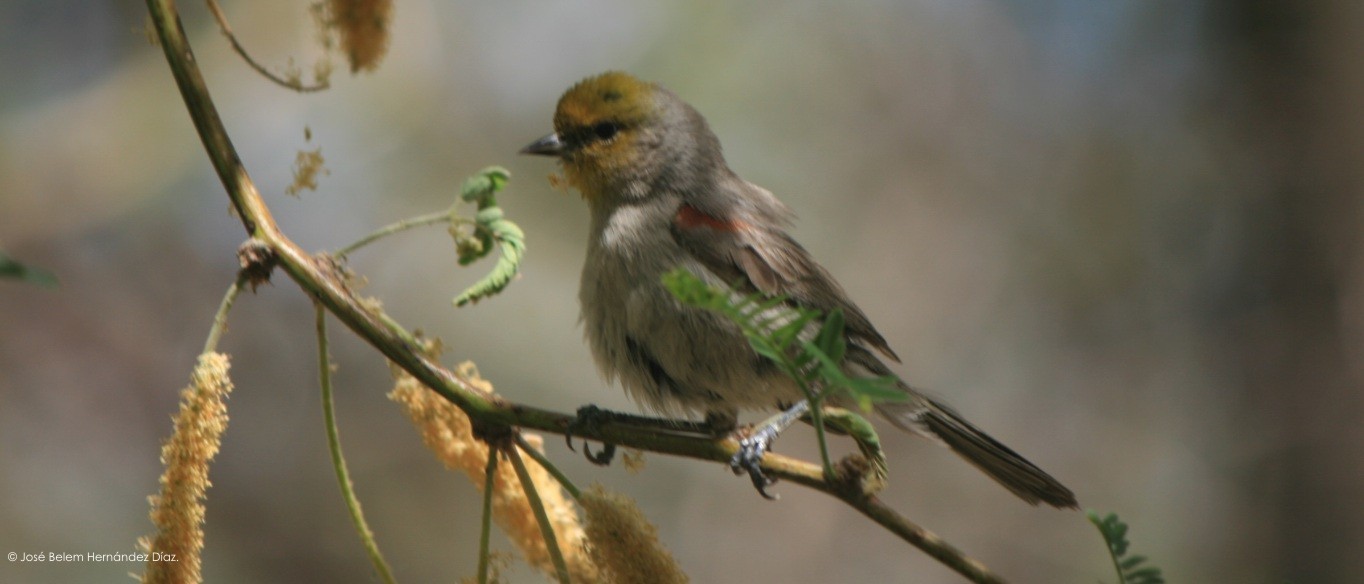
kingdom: Animalia
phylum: Chordata
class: Aves
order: Passeriformes
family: Remizidae
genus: Auriparus
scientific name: Auriparus flaviceps
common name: Verdin
